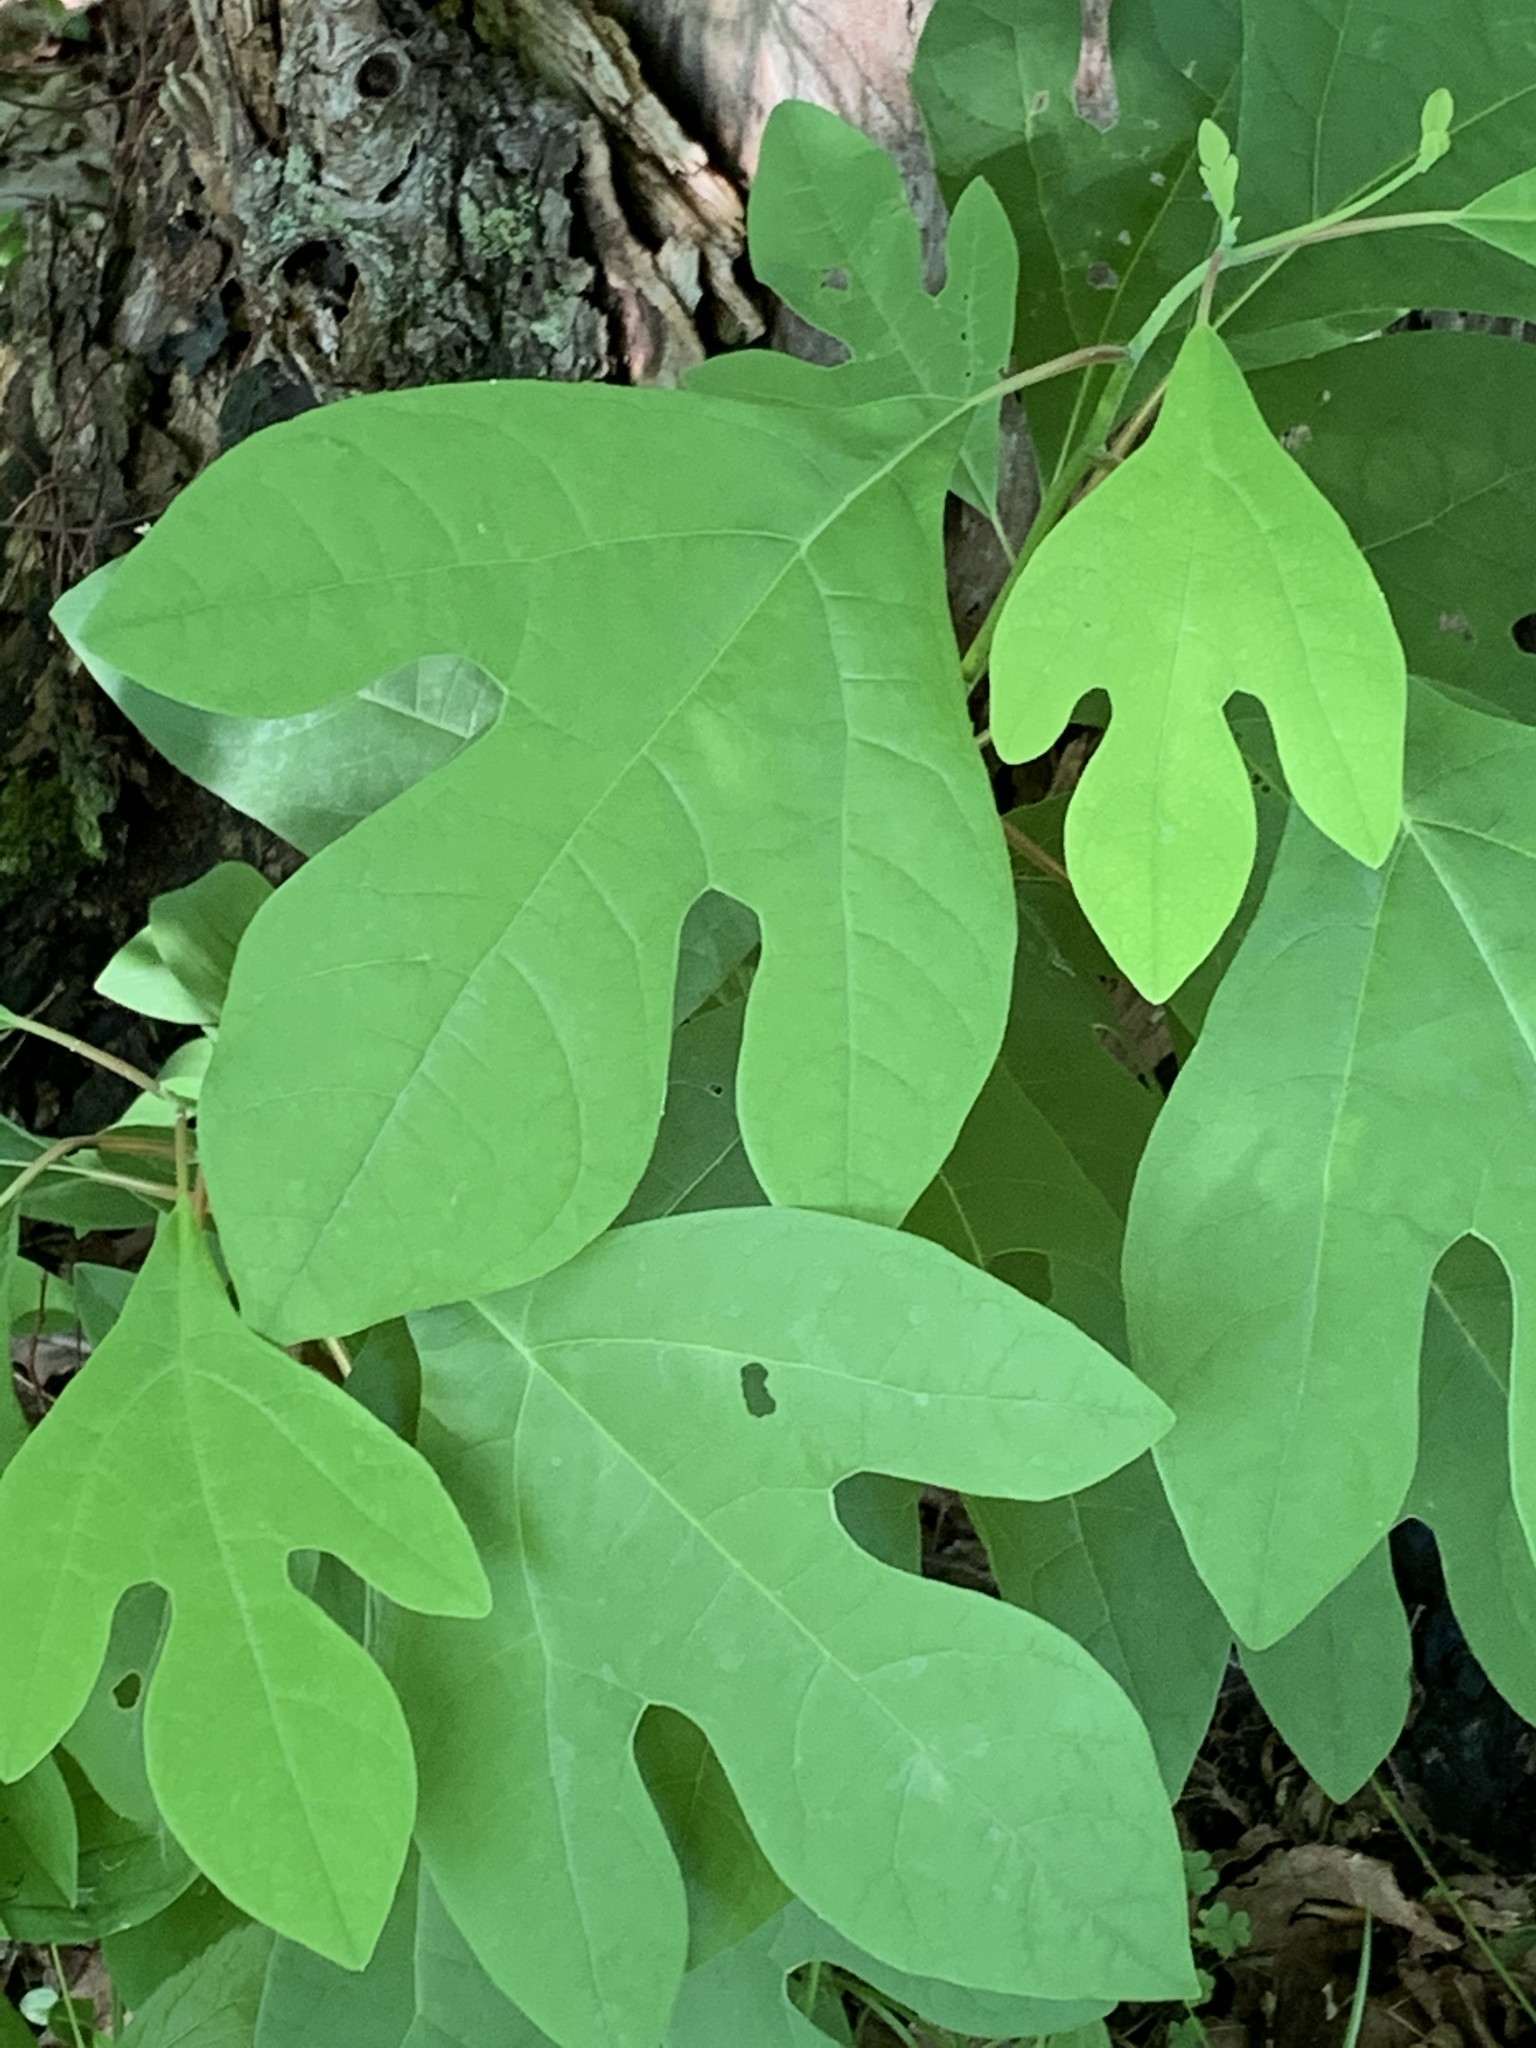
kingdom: Plantae
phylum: Tracheophyta
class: Magnoliopsida
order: Laurales
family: Lauraceae
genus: Sassafras
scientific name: Sassafras albidum
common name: Sassafras
